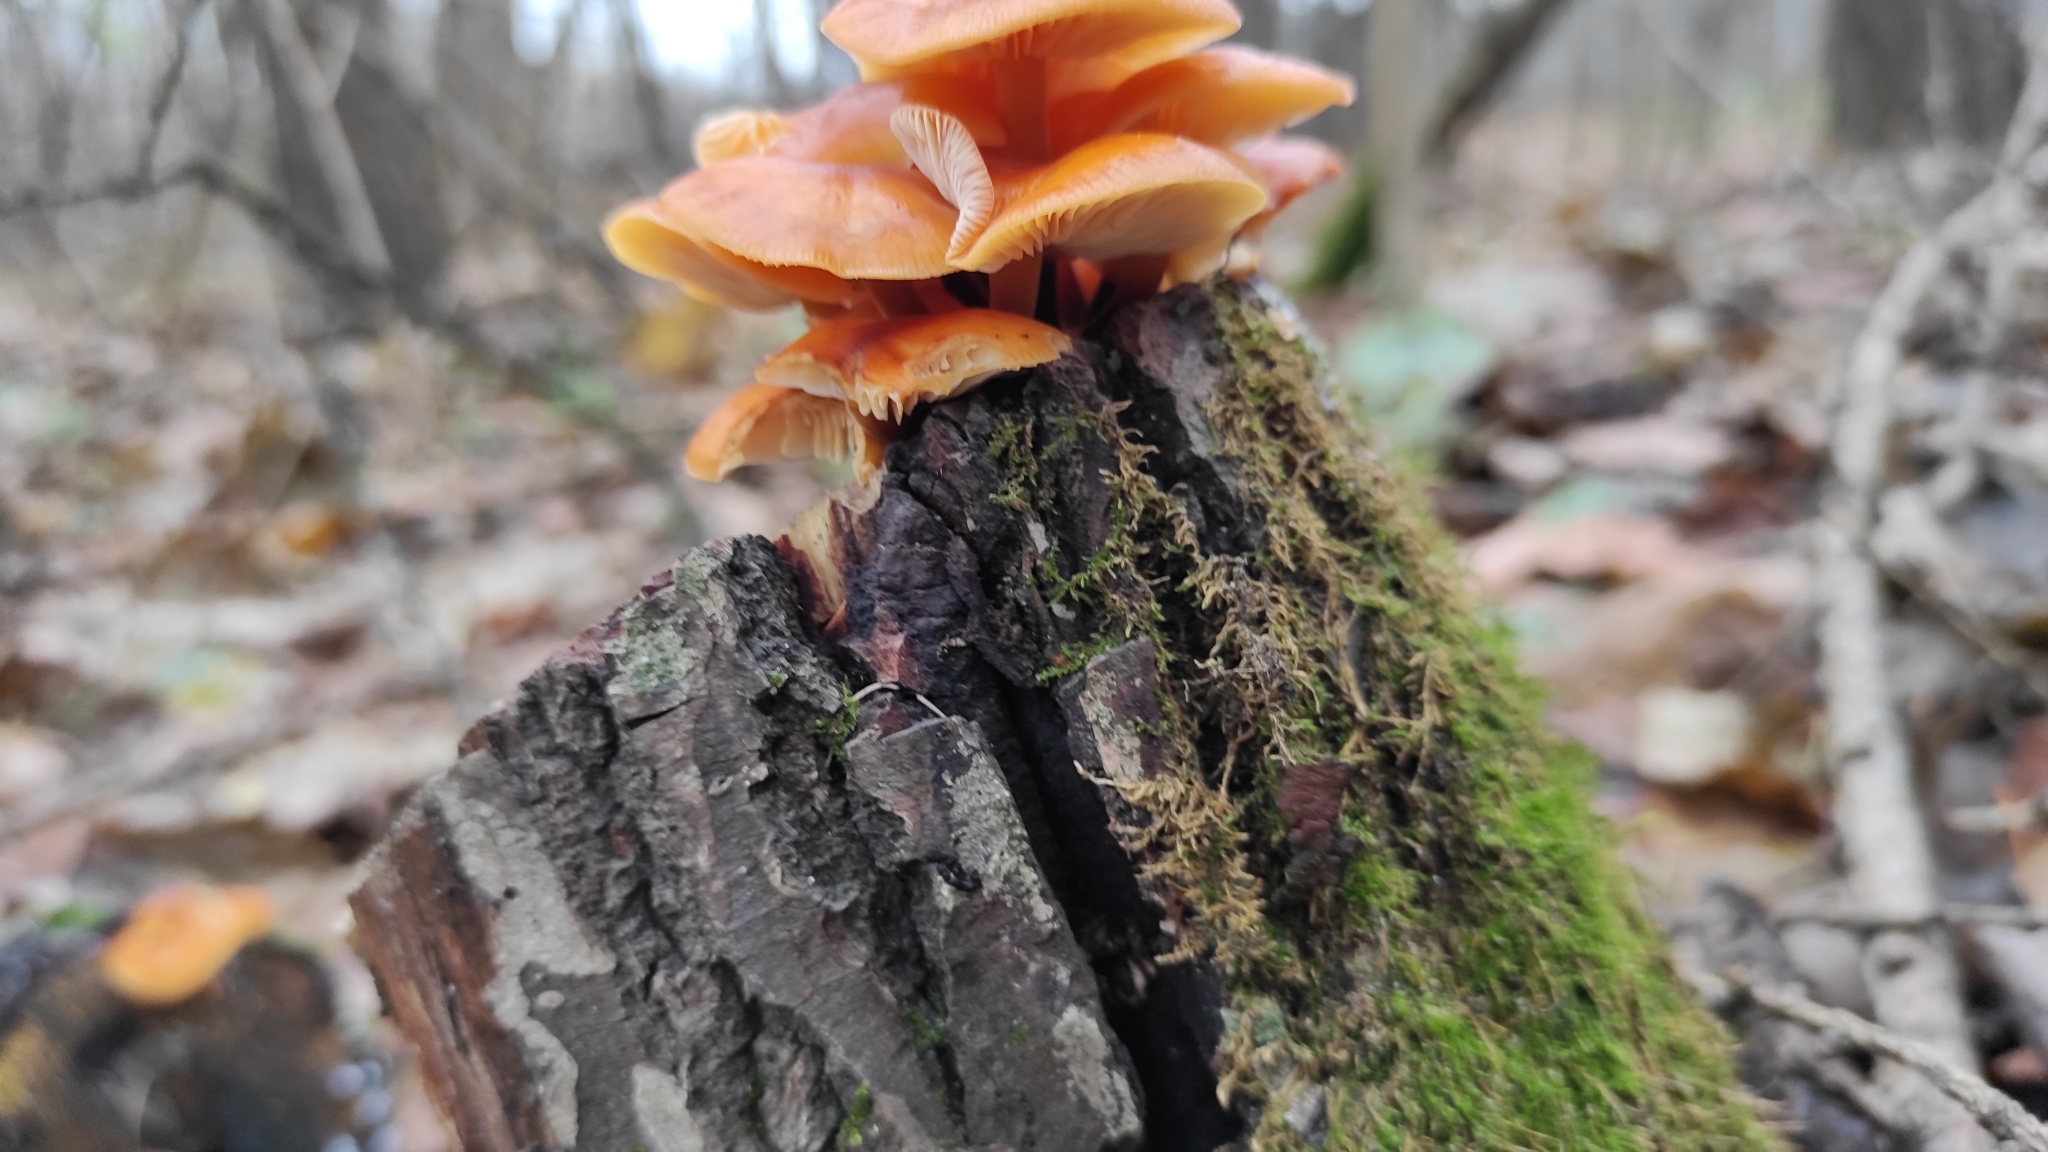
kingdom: Fungi
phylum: Basidiomycota
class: Agaricomycetes
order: Agaricales
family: Physalacriaceae
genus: Flammulina
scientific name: Flammulina
